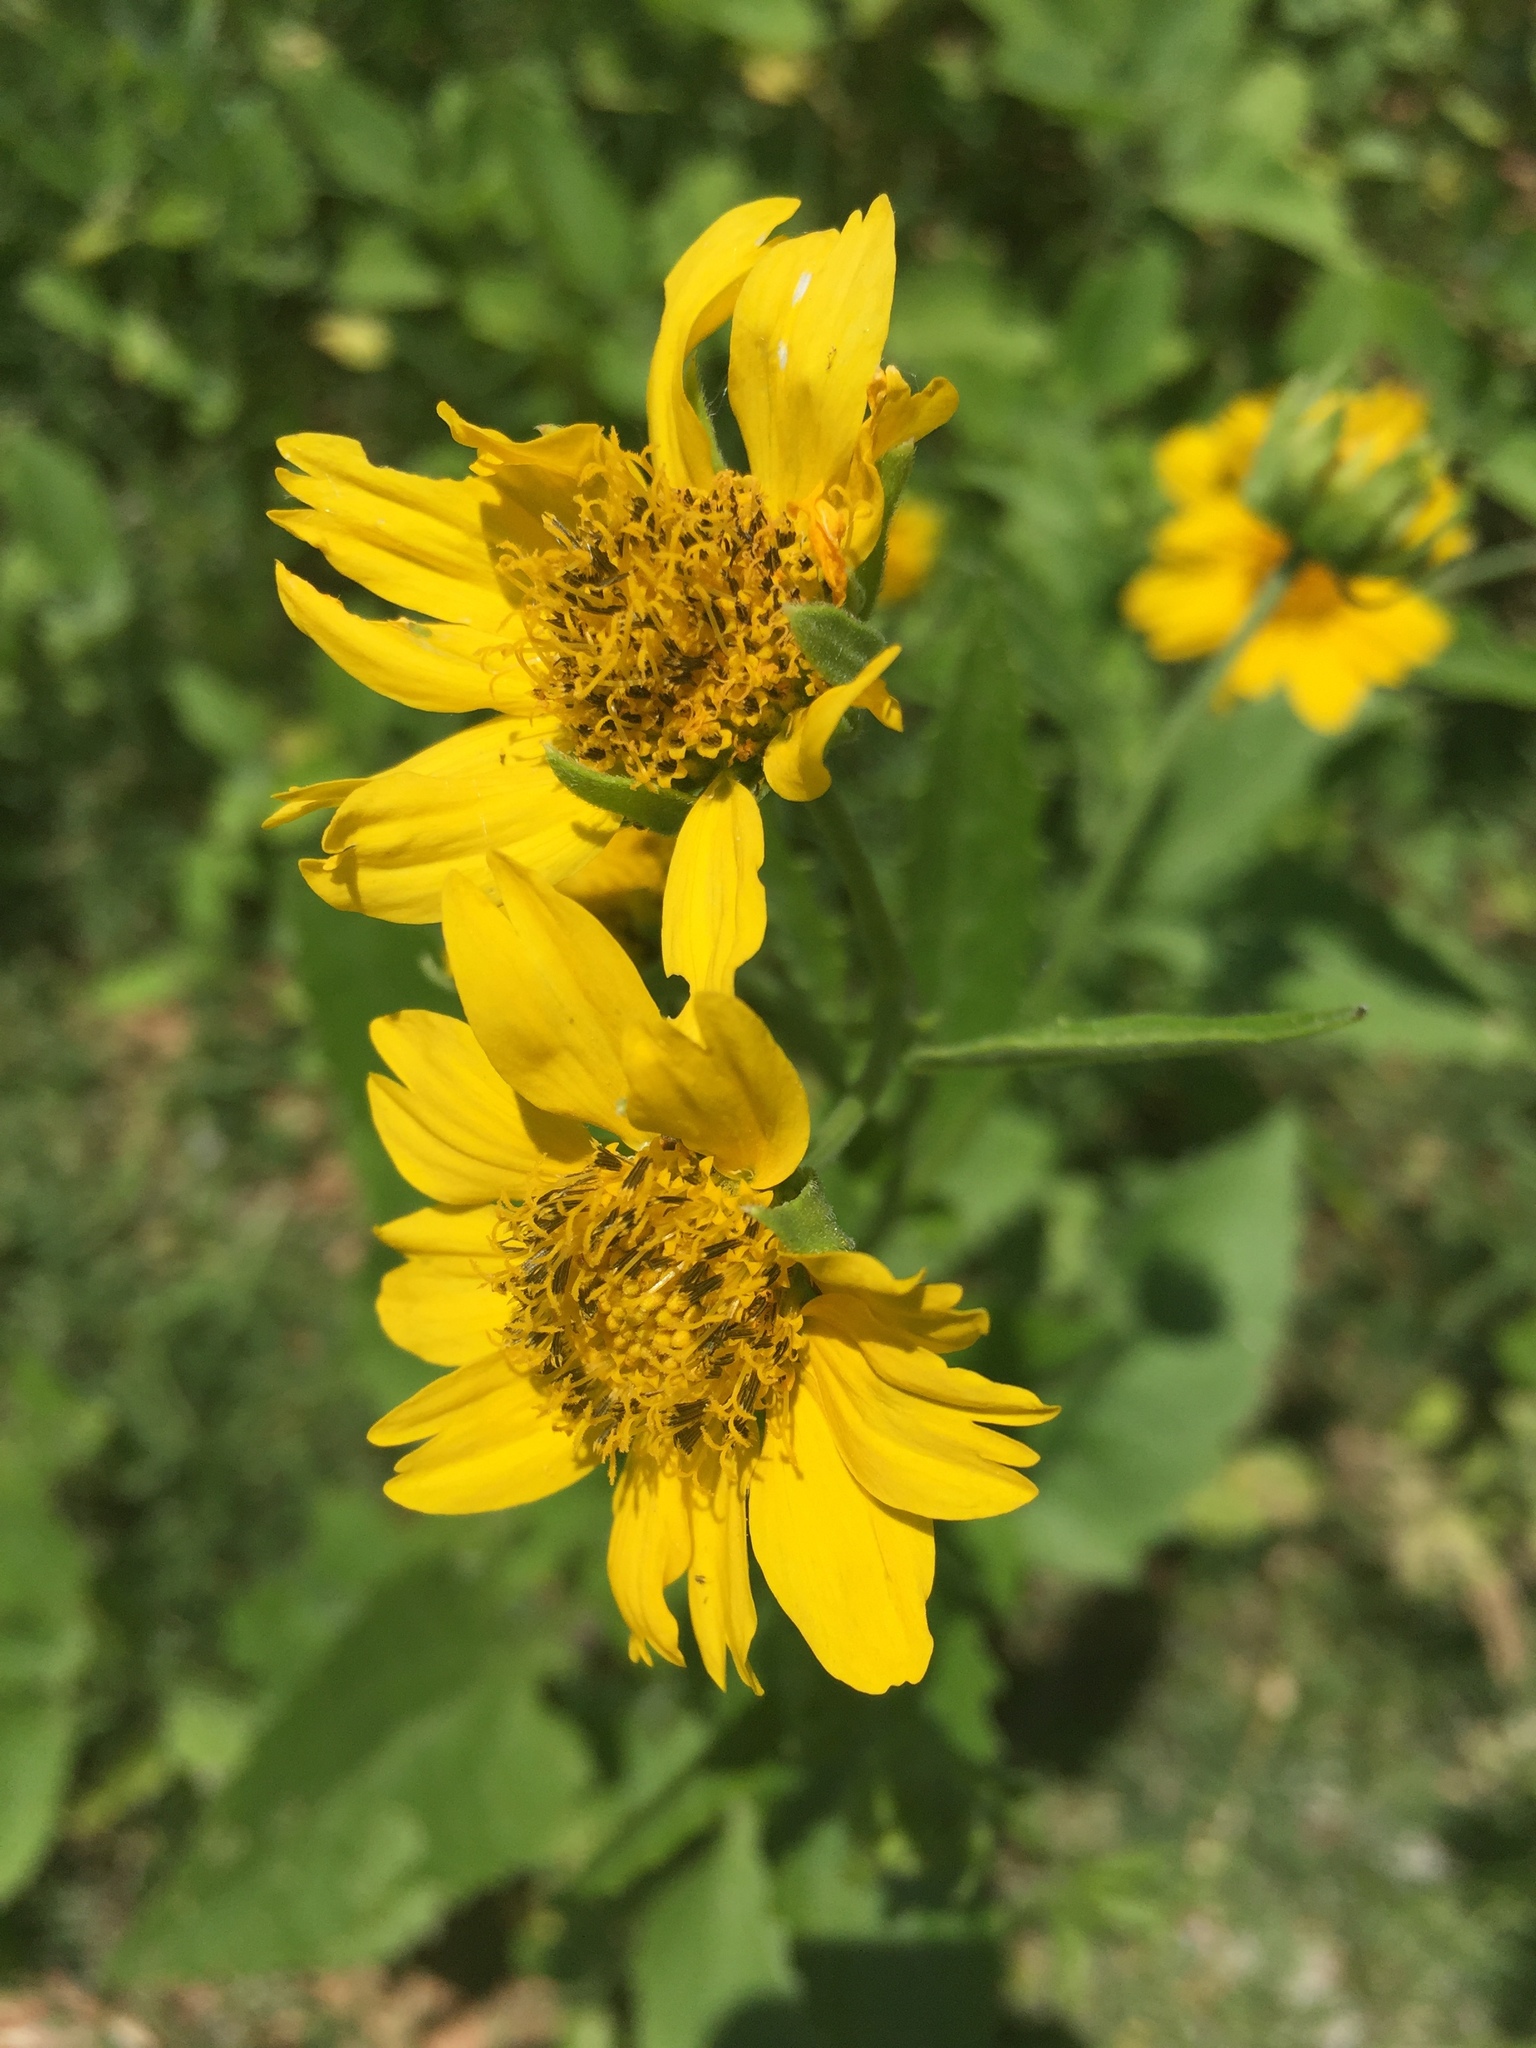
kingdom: Plantae
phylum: Tracheophyta
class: Magnoliopsida
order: Asterales
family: Asteraceae
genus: Verbesina
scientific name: Verbesina encelioides
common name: Golden crownbeard
